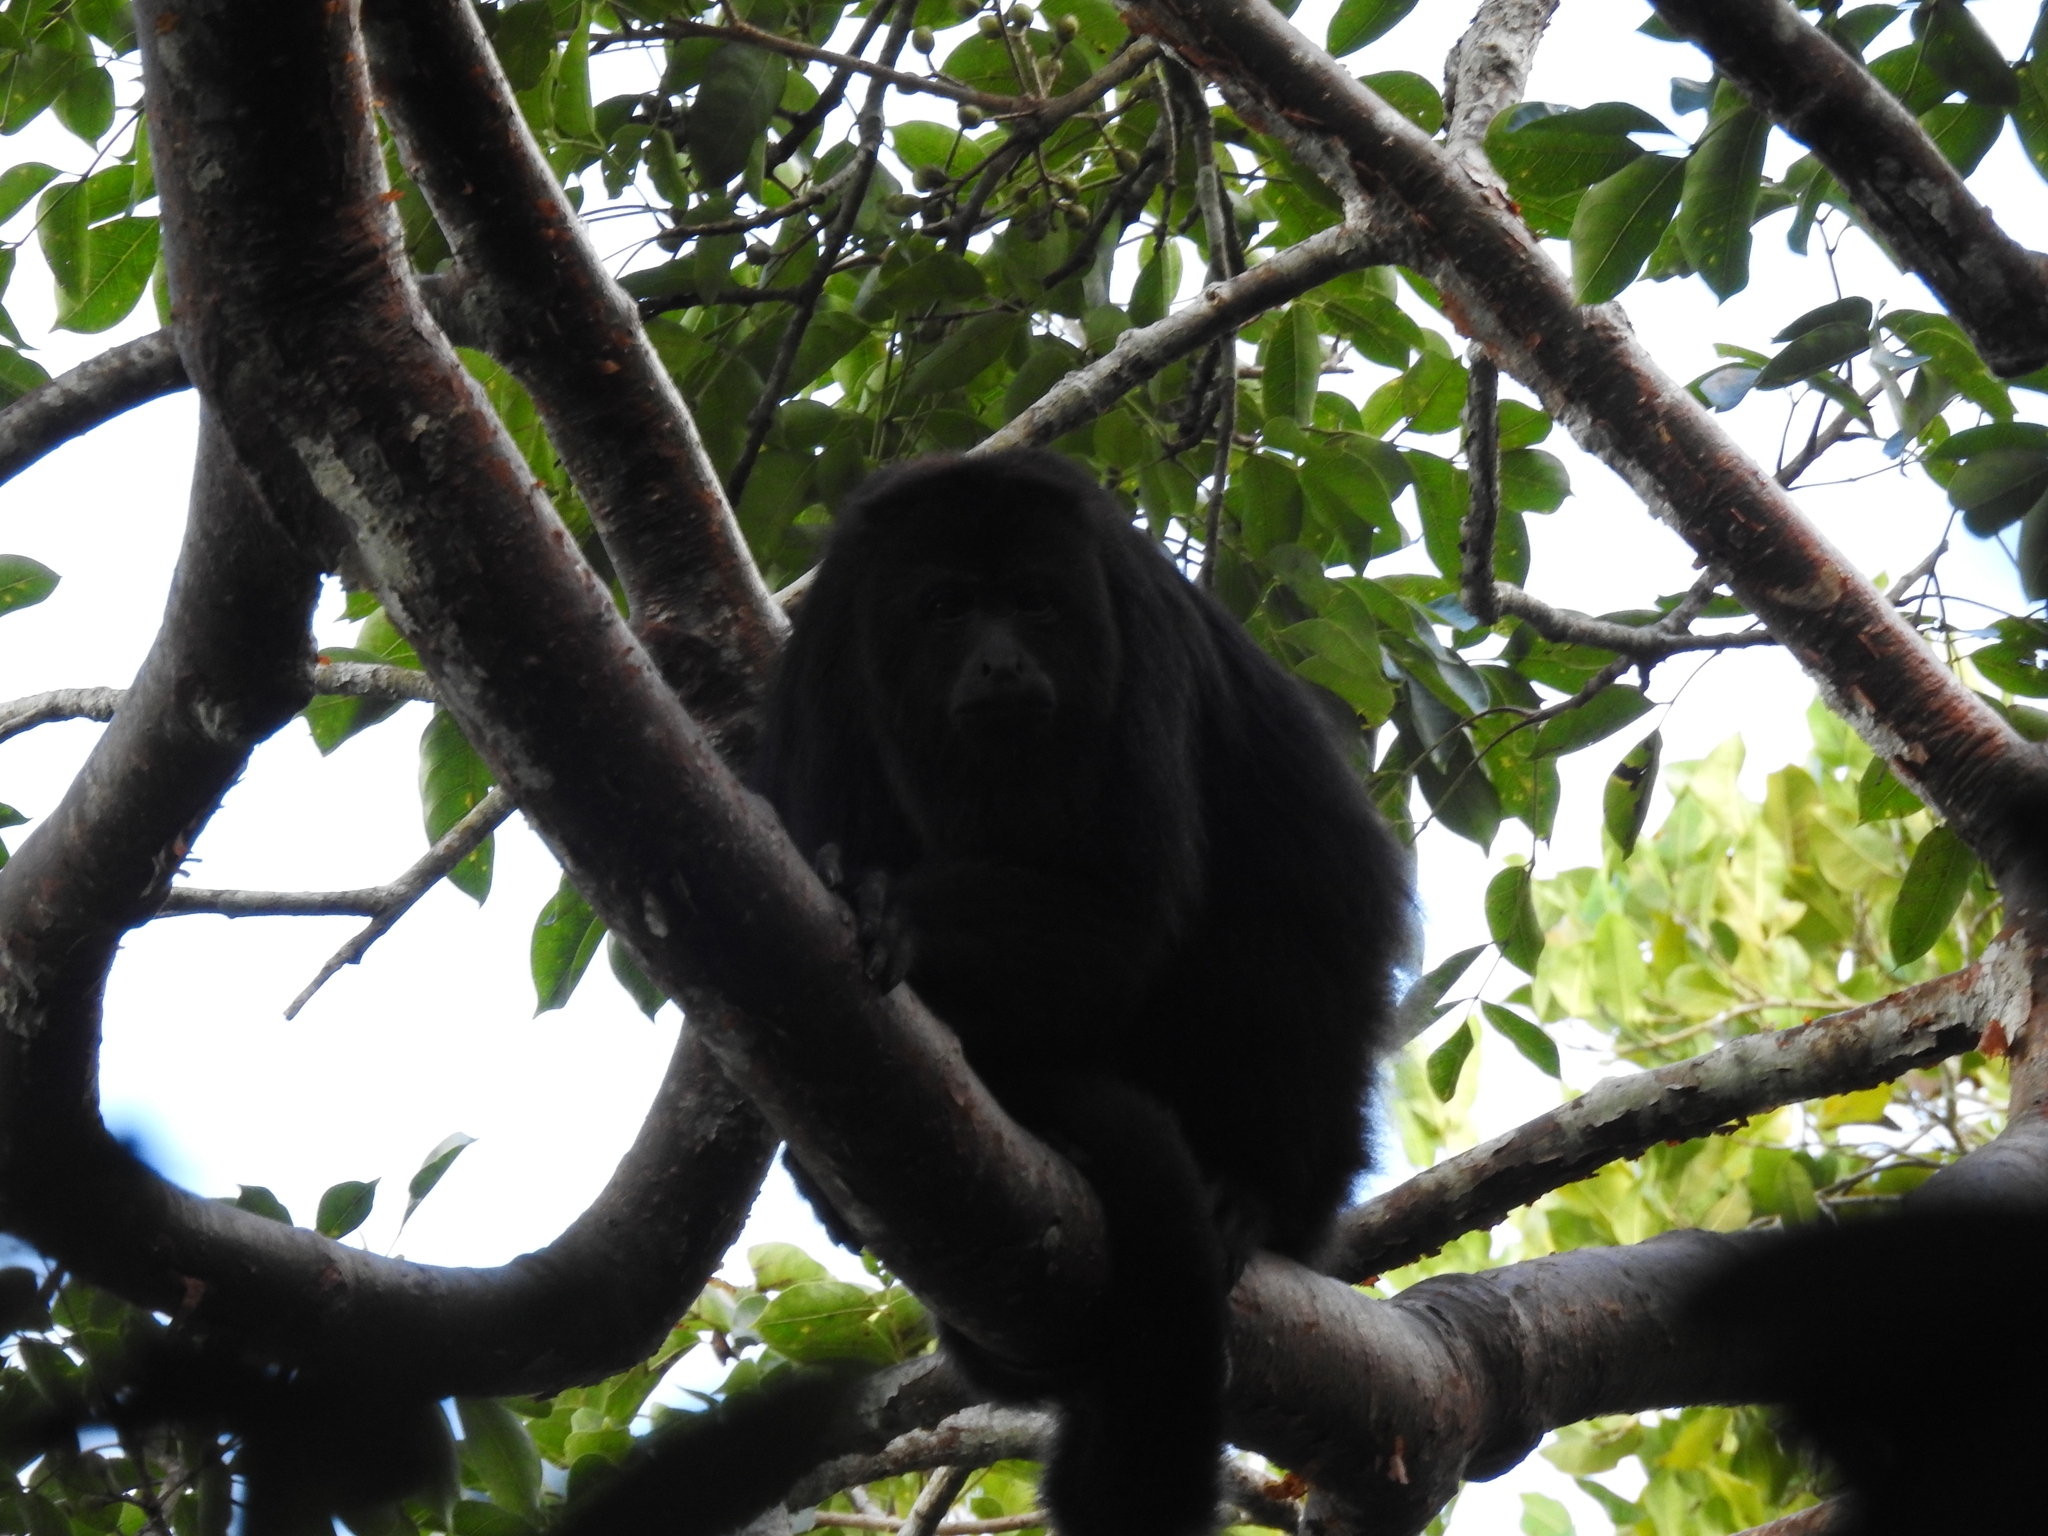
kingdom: Animalia
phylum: Chordata
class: Mammalia
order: Primates
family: Atelidae
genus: Alouatta
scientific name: Alouatta pigra
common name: Guatemalan black howler
